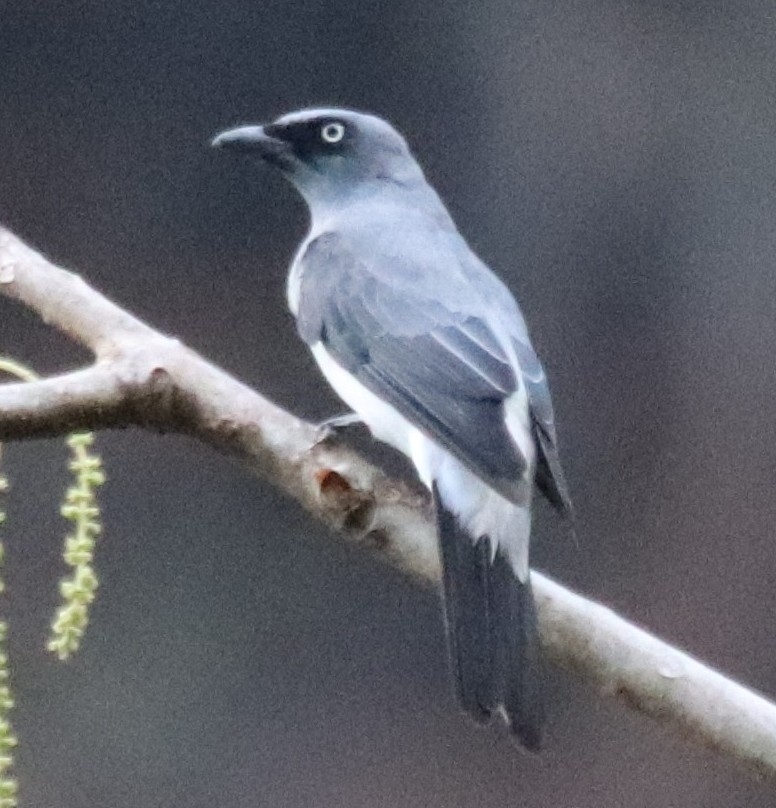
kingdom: Animalia
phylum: Chordata
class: Aves
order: Passeriformes
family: Campephagidae
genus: Coracina
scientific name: Coracina leucopygia
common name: White-rumped cuckooshrike
